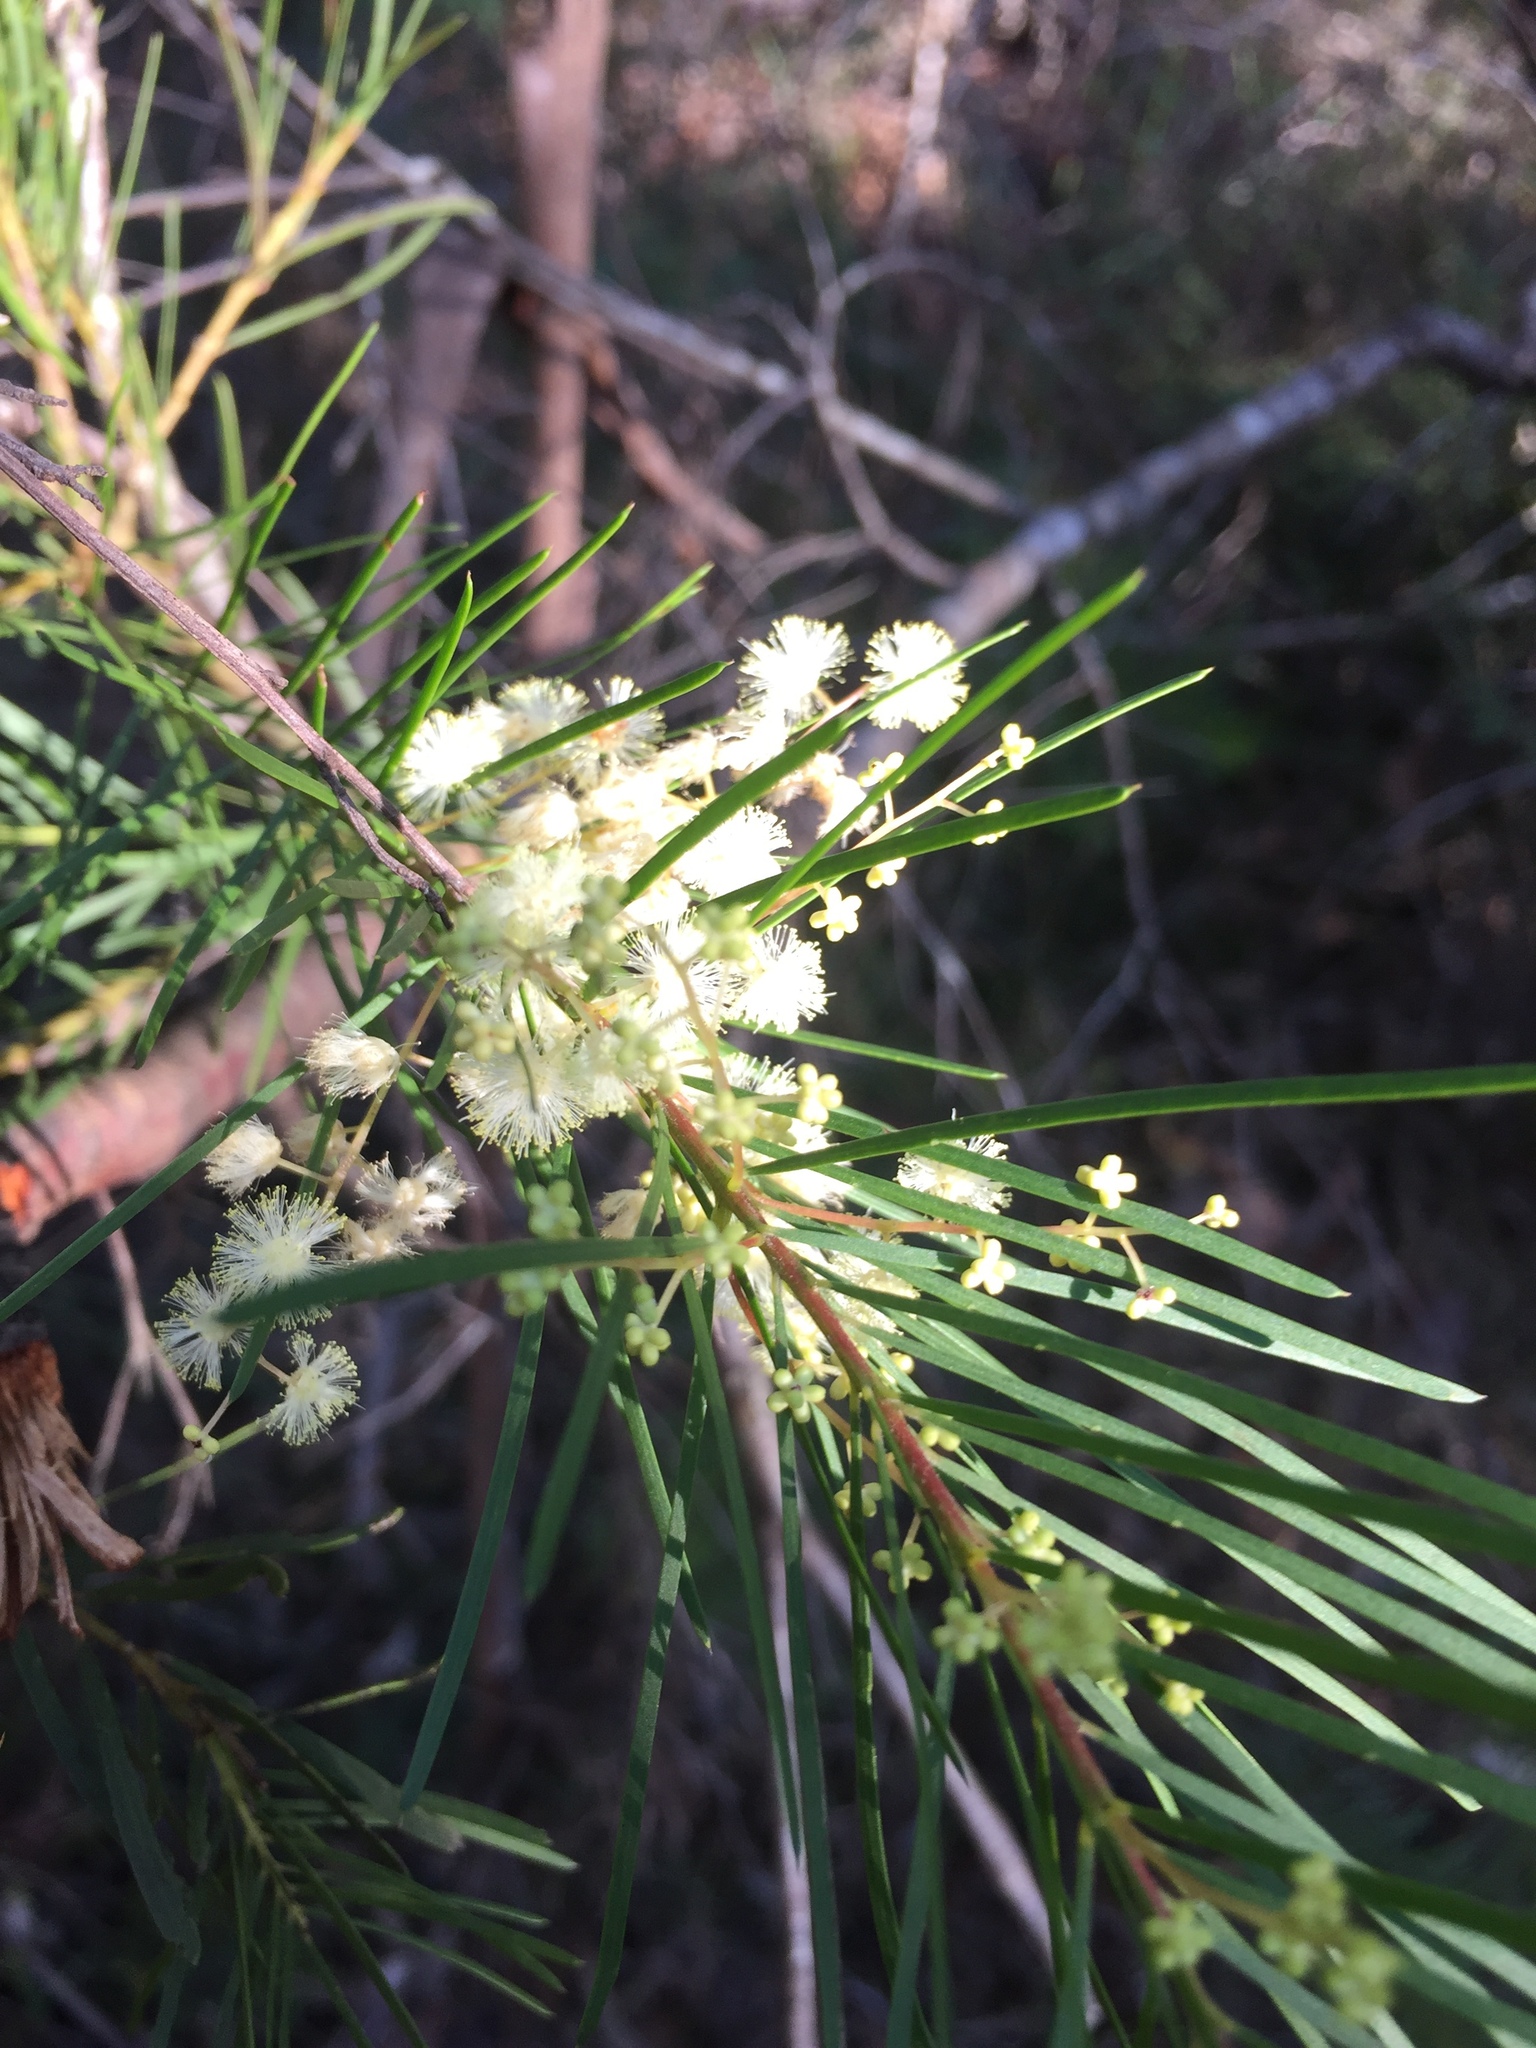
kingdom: Plantae
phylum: Tracheophyta
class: Magnoliopsida
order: Fabales
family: Fabaceae
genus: Acacia
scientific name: Acacia linifolia
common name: White wattle
